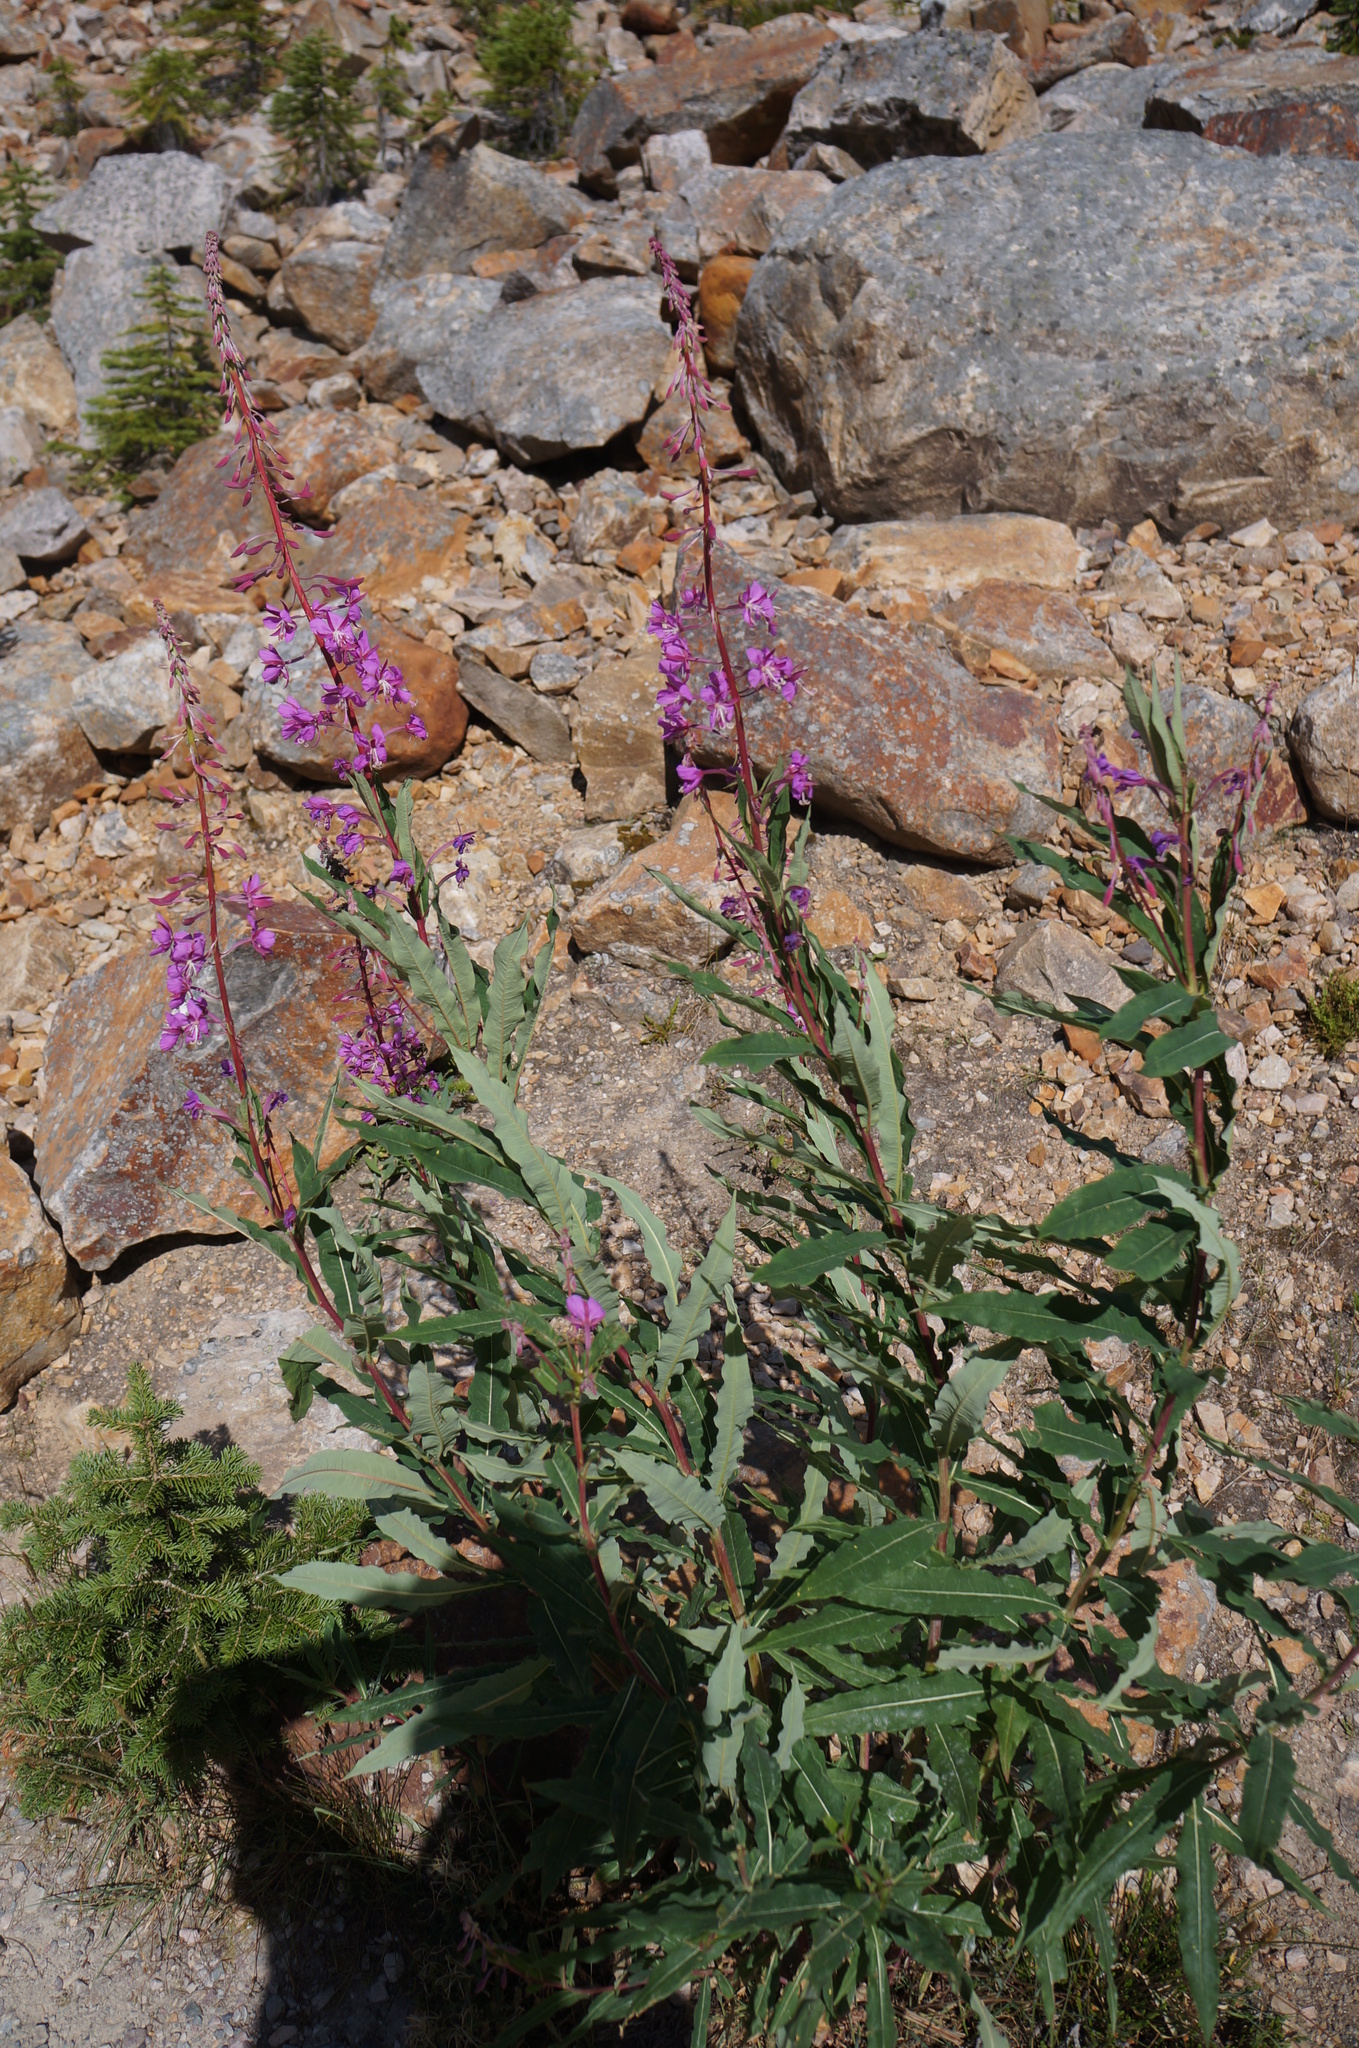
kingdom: Plantae
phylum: Tracheophyta
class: Magnoliopsida
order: Myrtales
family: Onagraceae
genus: Chamaenerion
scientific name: Chamaenerion angustifolium
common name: Fireweed
